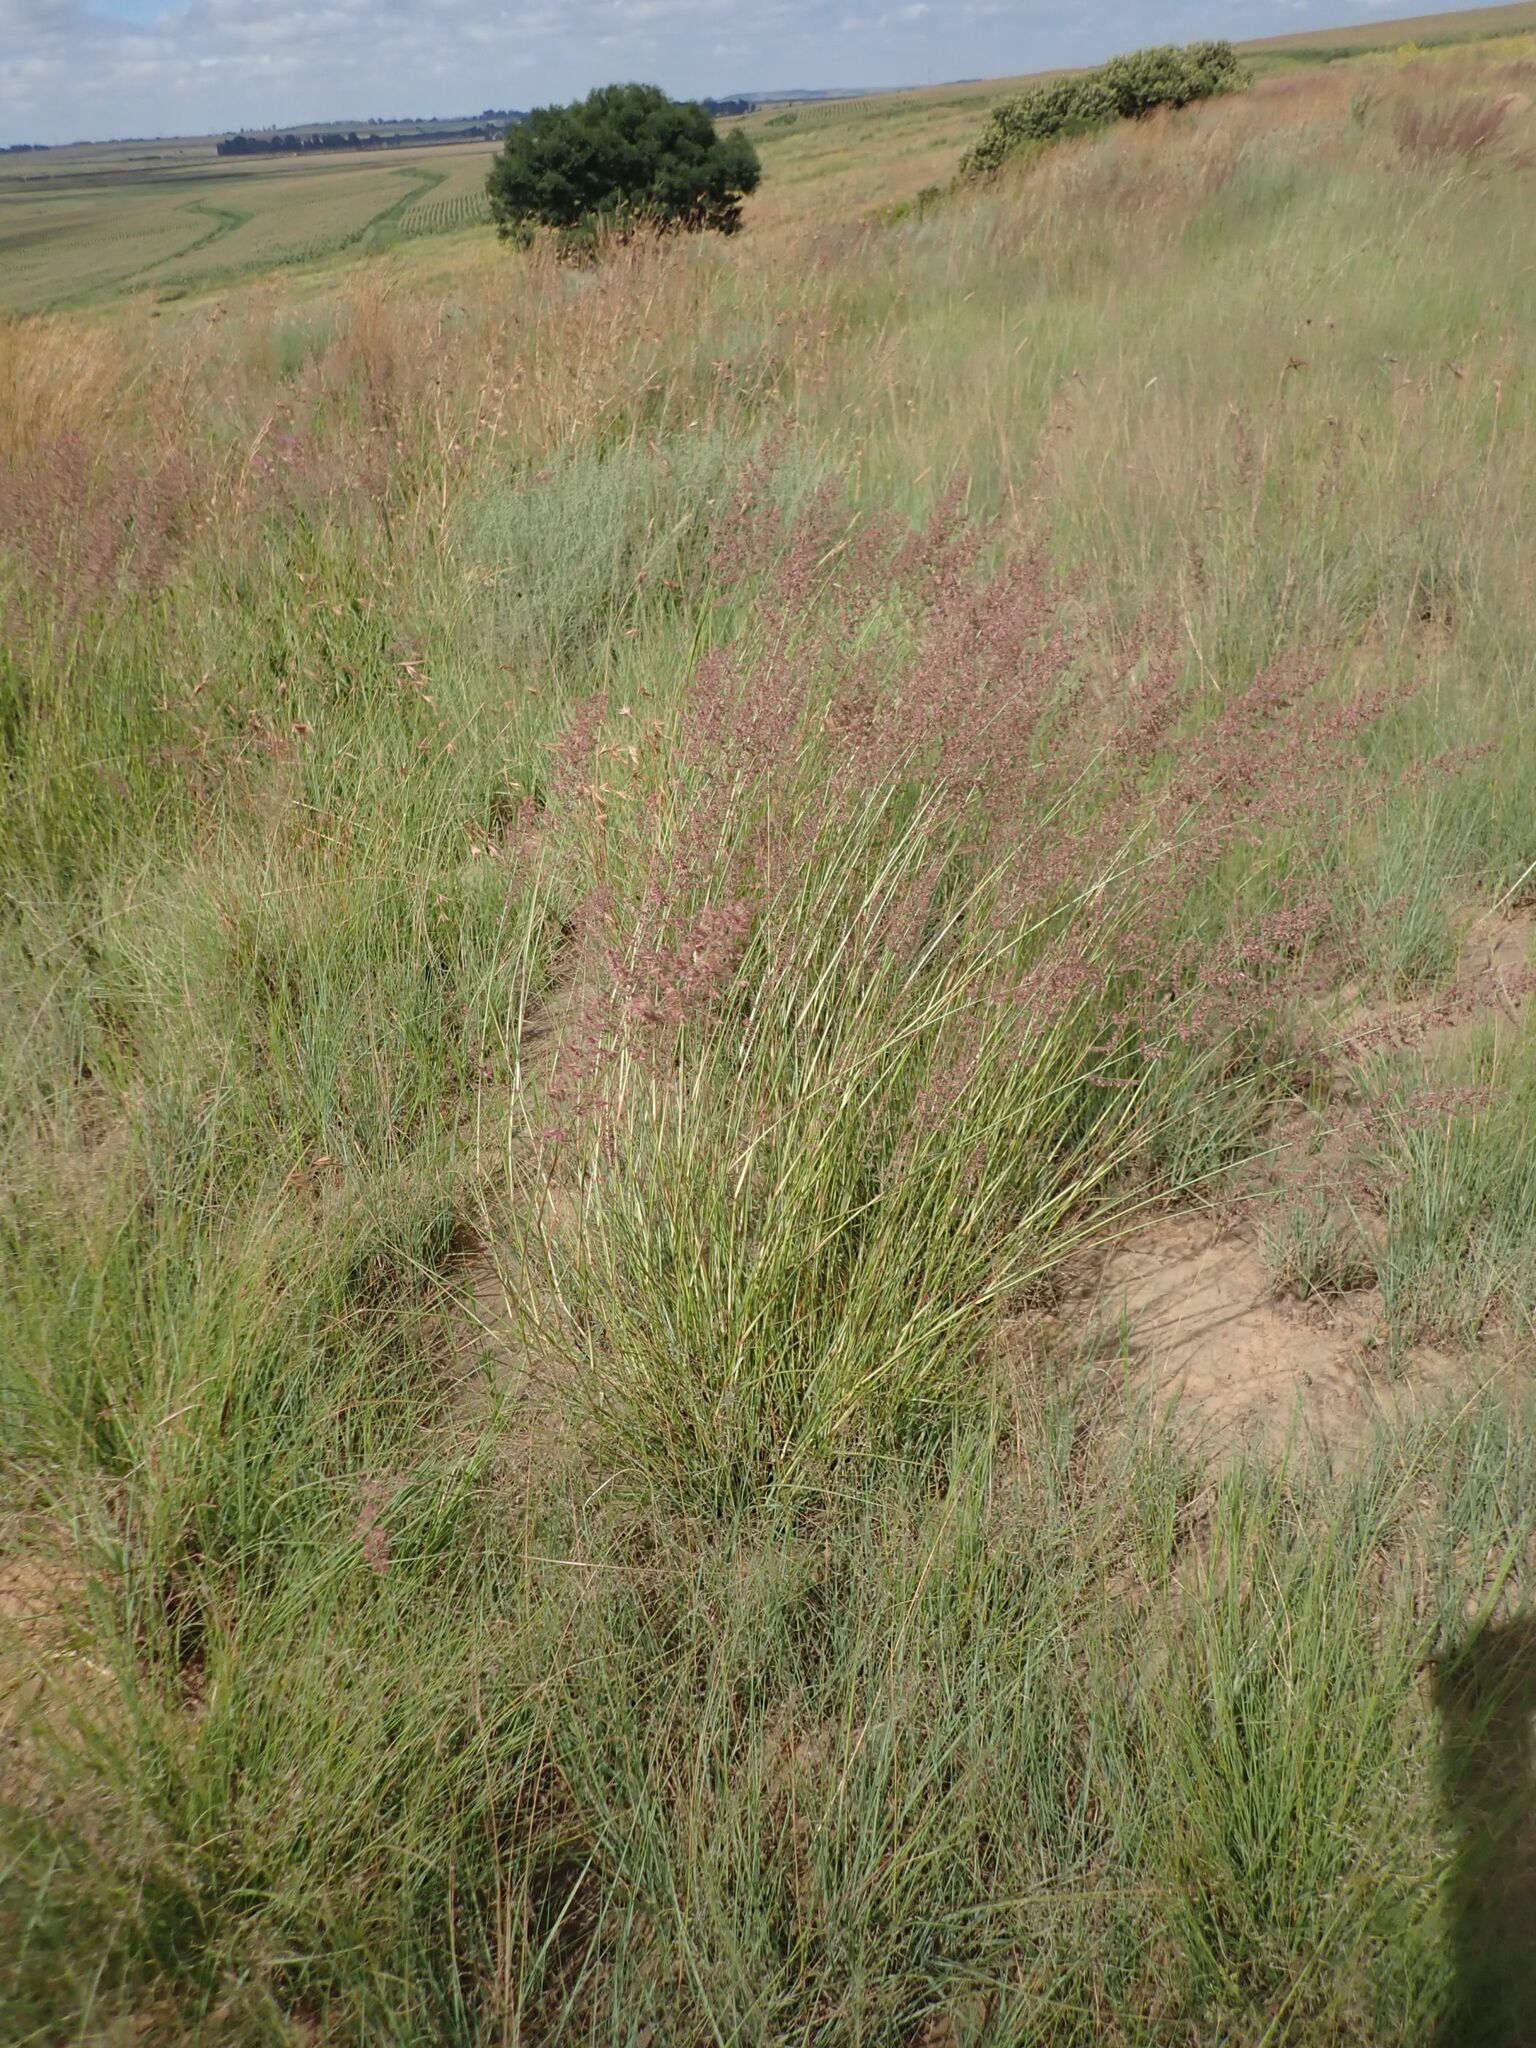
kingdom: Plantae
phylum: Tracheophyta
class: Liliopsida
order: Poales
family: Poaceae
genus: Eragrostis
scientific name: Eragrostis gummiflua
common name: Gum grass
